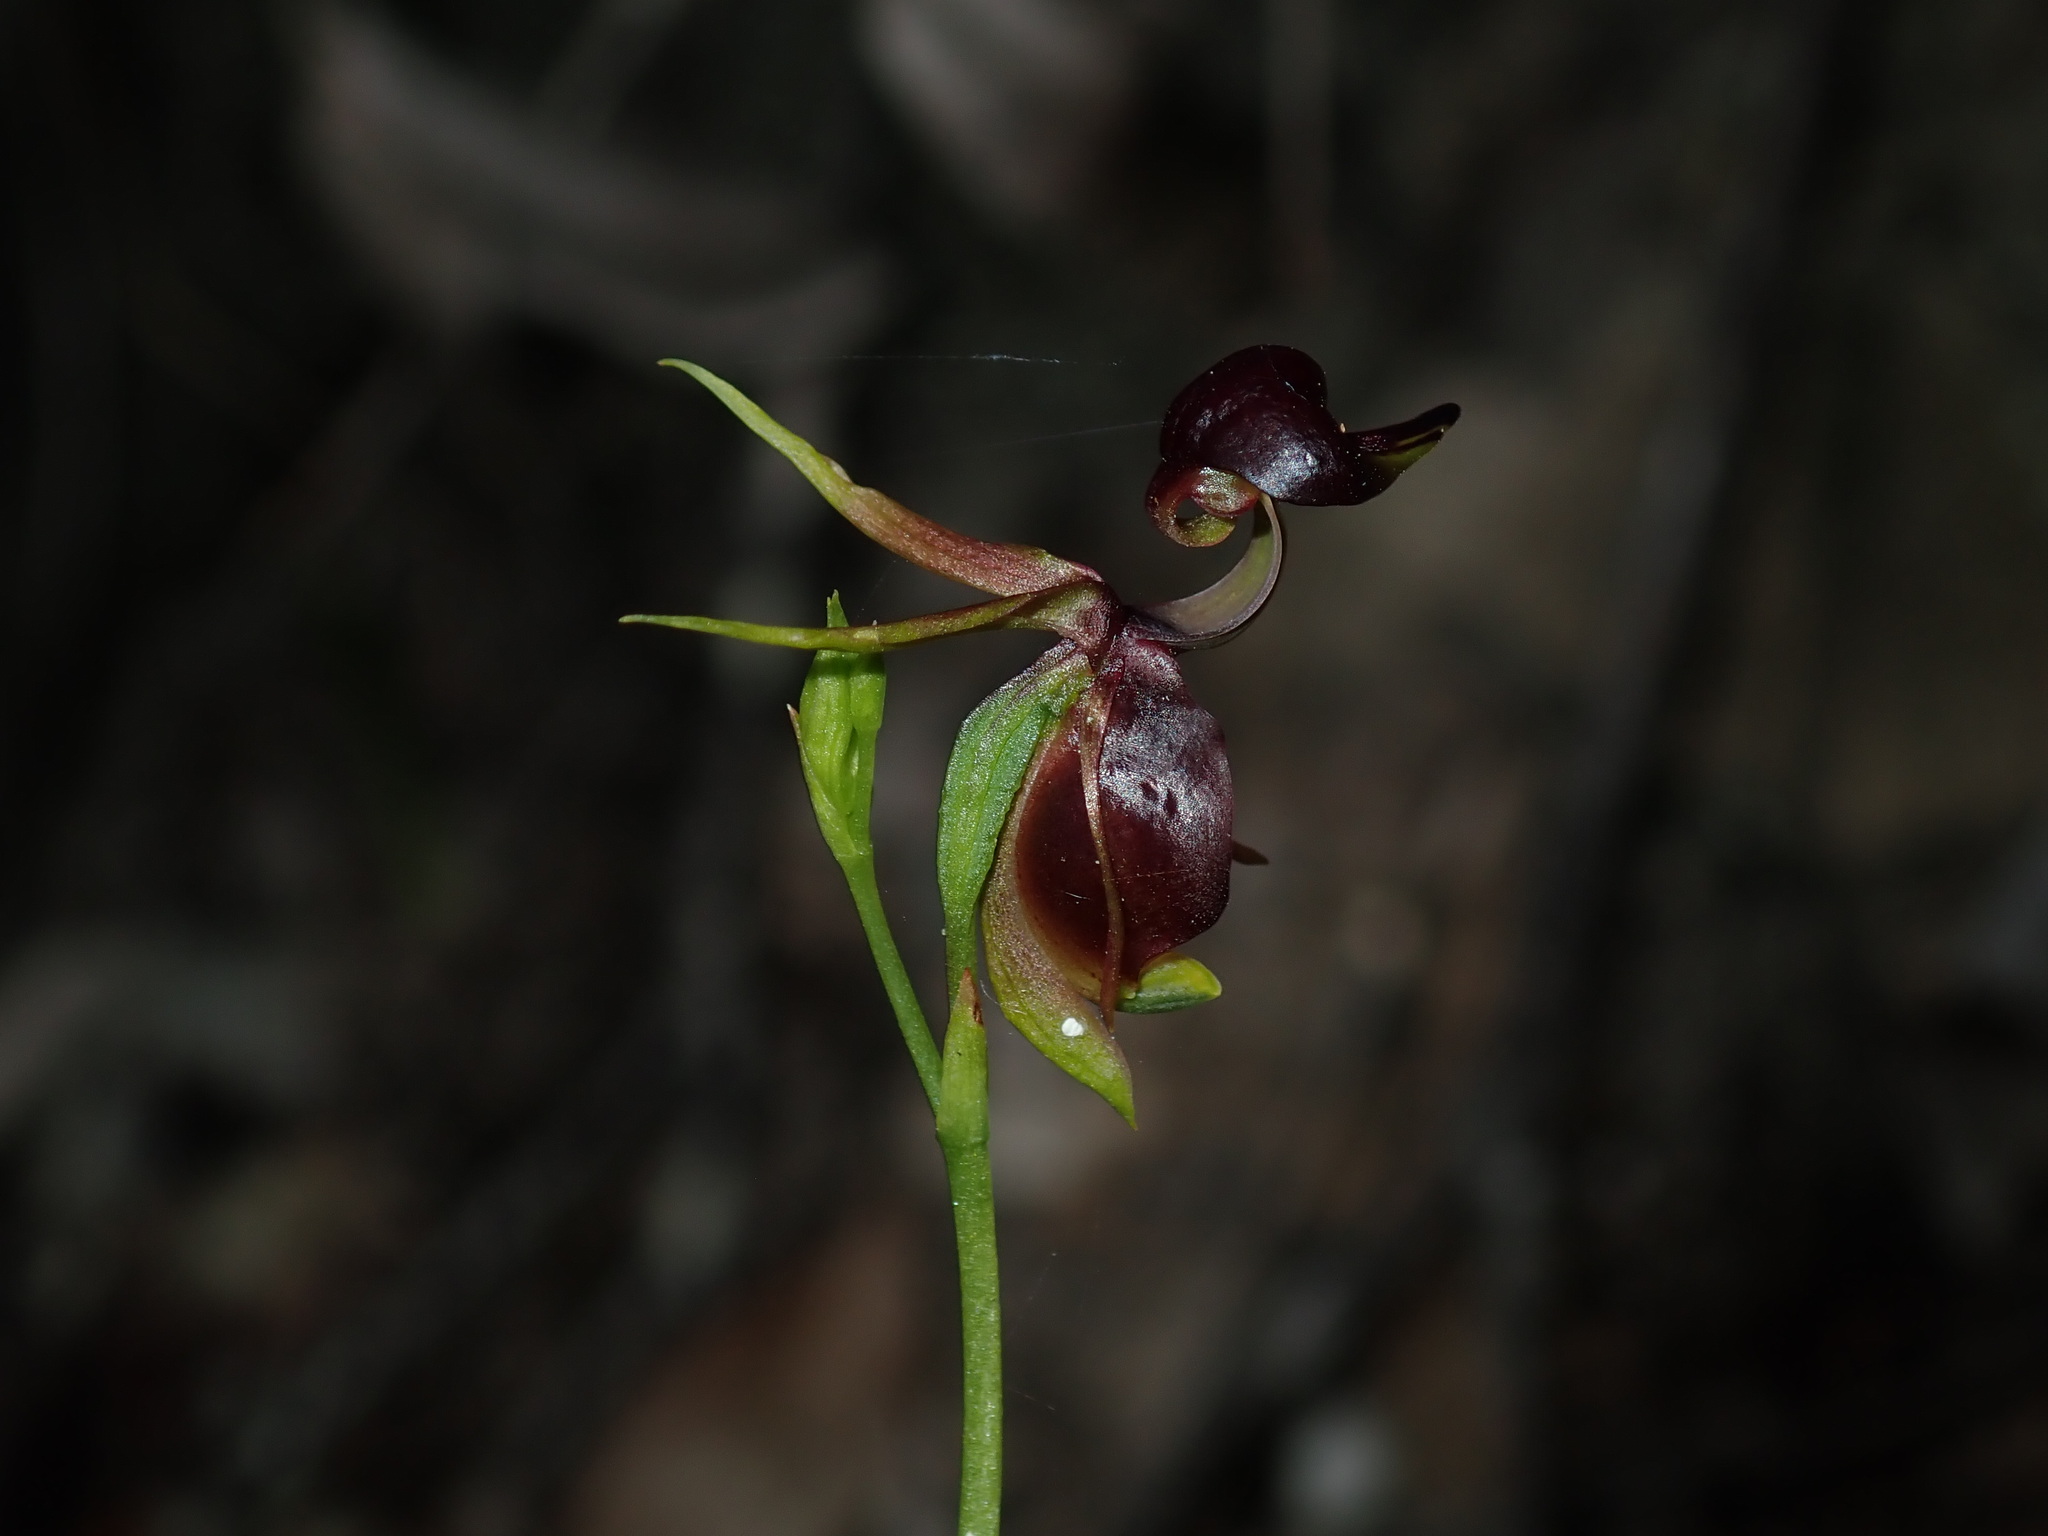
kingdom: Plantae
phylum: Tracheophyta
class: Liliopsida
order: Asparagales
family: Orchidaceae
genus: Caleana
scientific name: Caleana major
